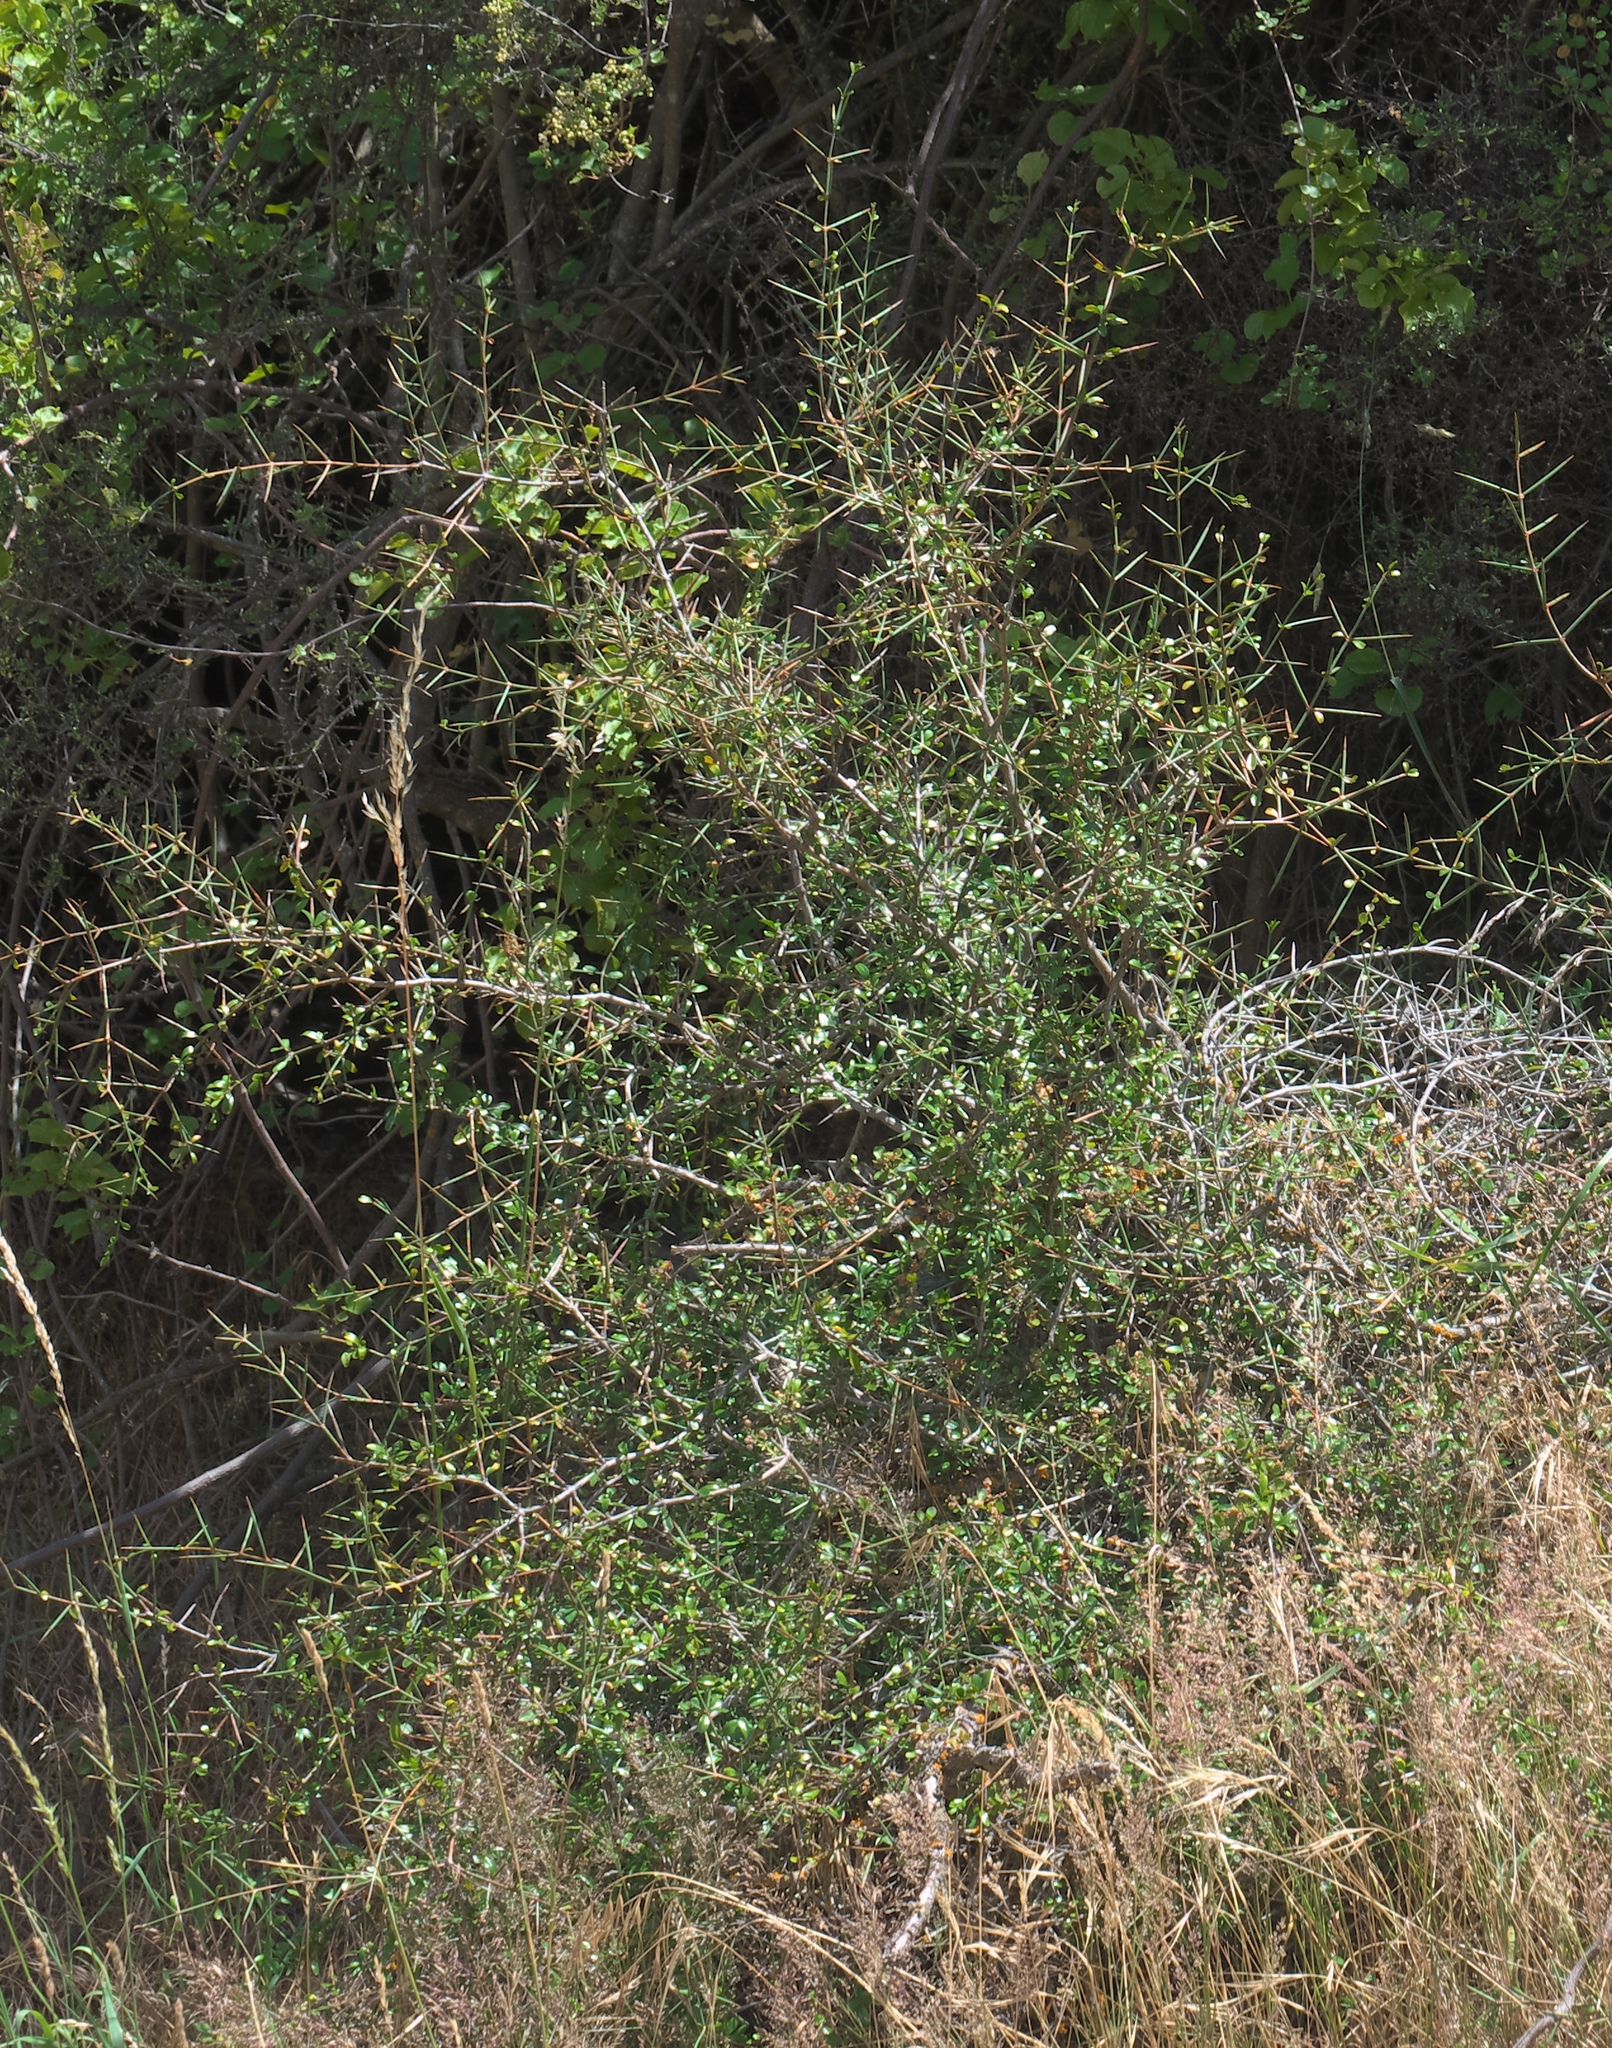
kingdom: Plantae
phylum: Tracheophyta
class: Magnoliopsida
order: Rosales
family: Rhamnaceae
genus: Discaria
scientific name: Discaria toumatou
